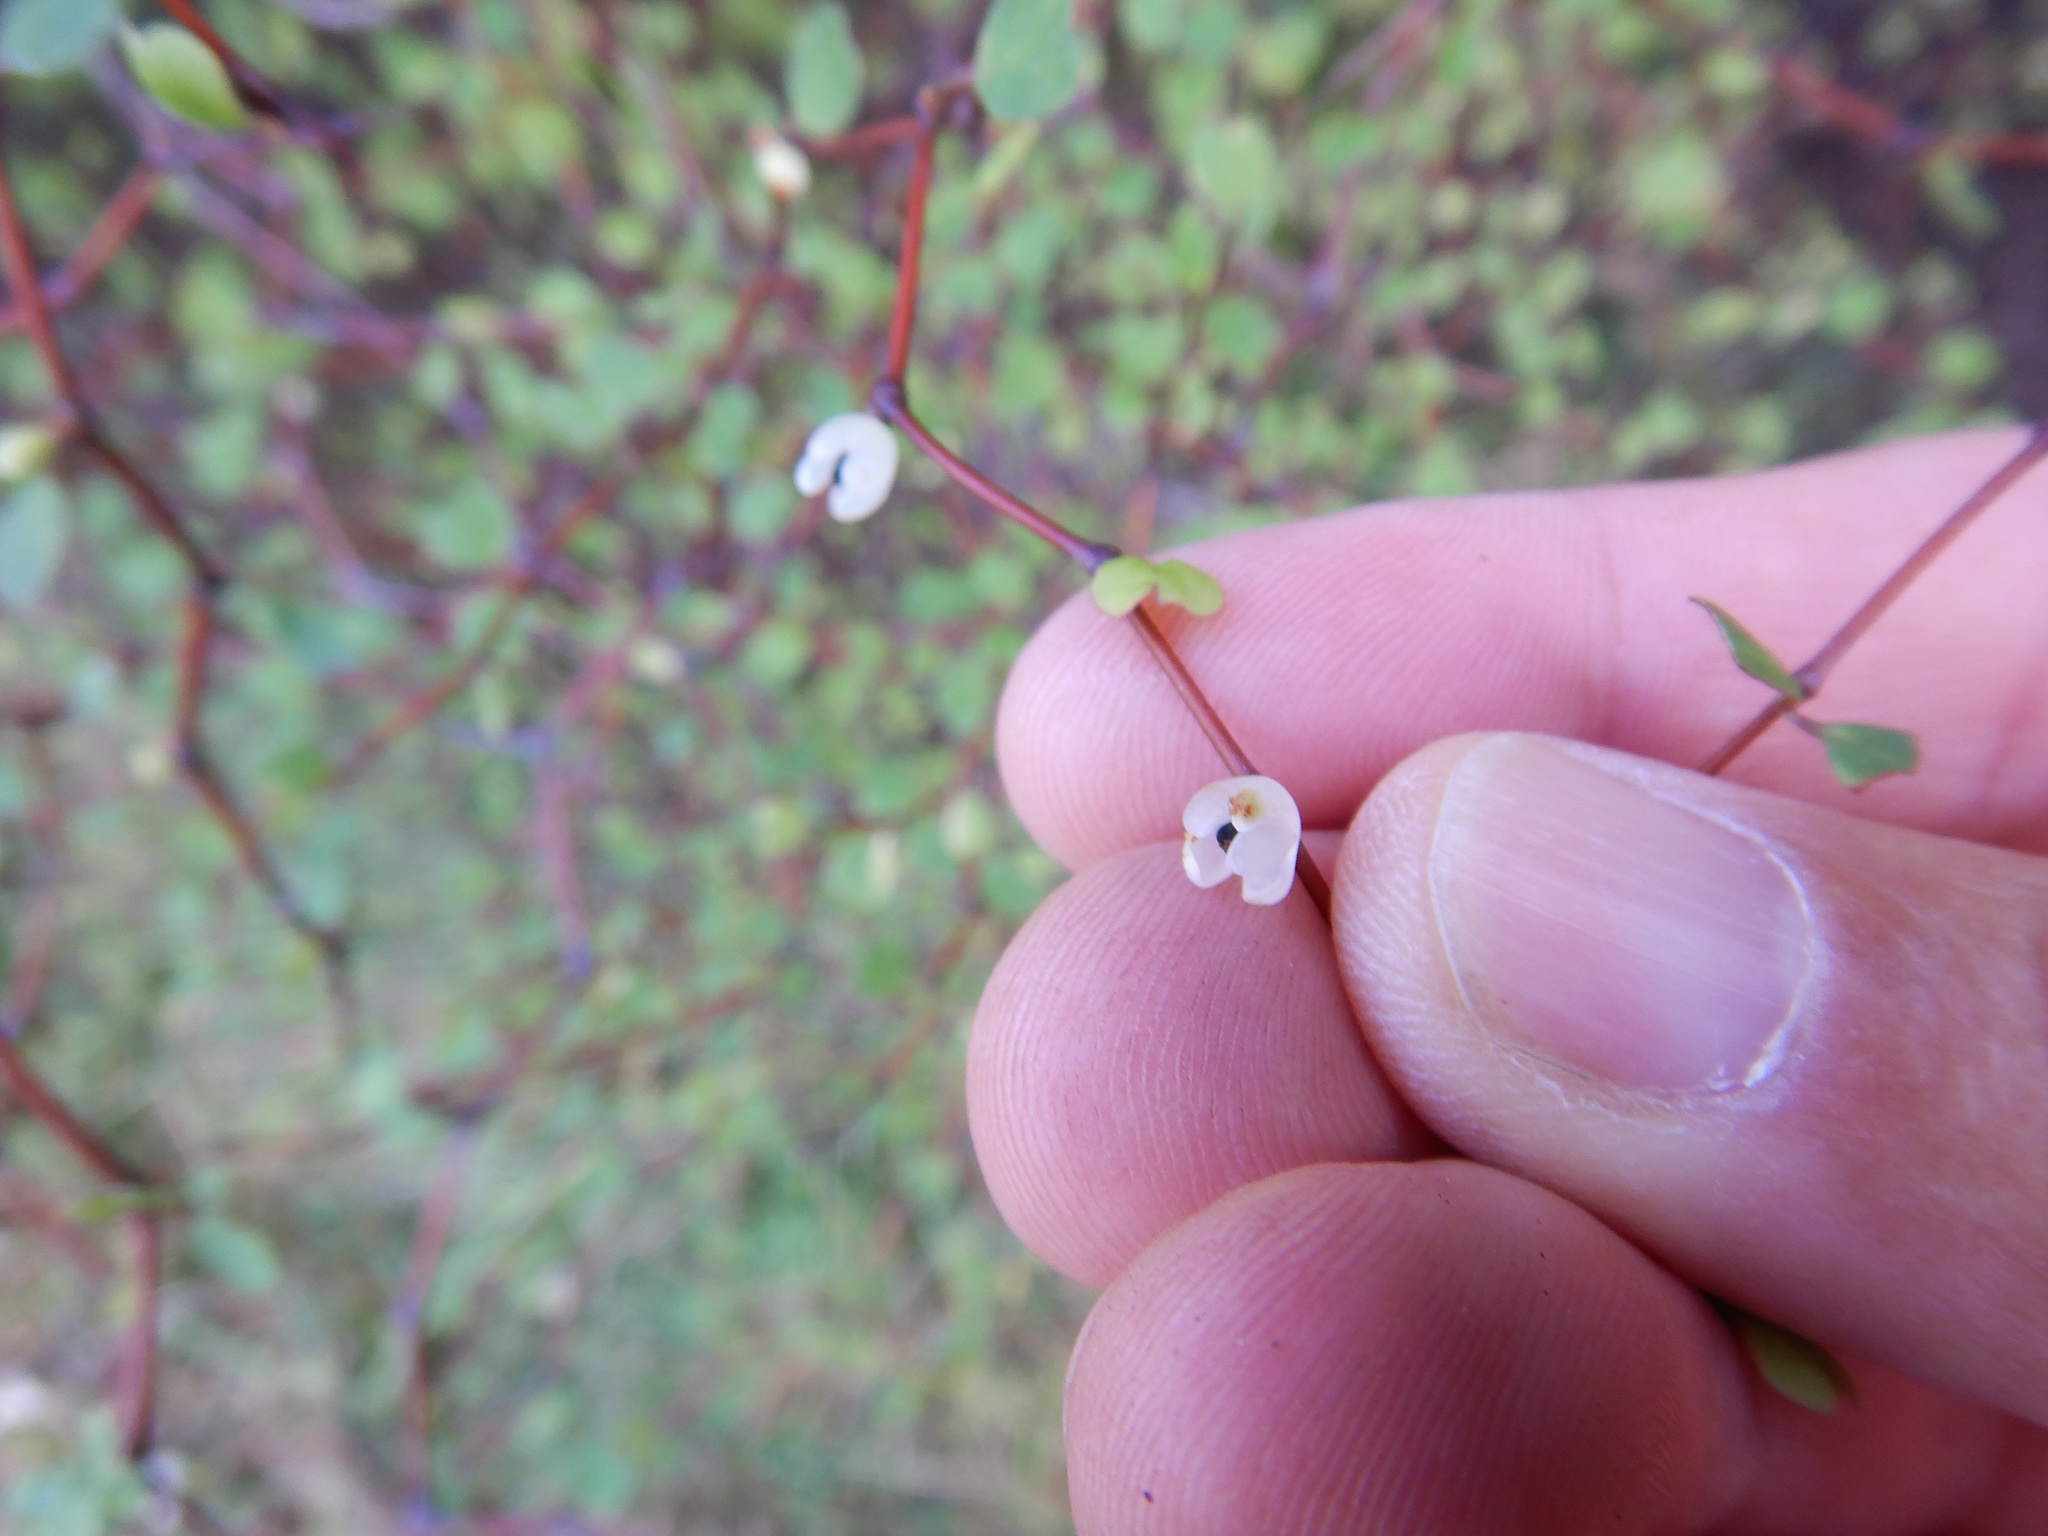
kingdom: Plantae
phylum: Tracheophyta
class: Magnoliopsida
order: Caryophyllales
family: Polygonaceae
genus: Muehlenbeckia
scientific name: Muehlenbeckia astonii
